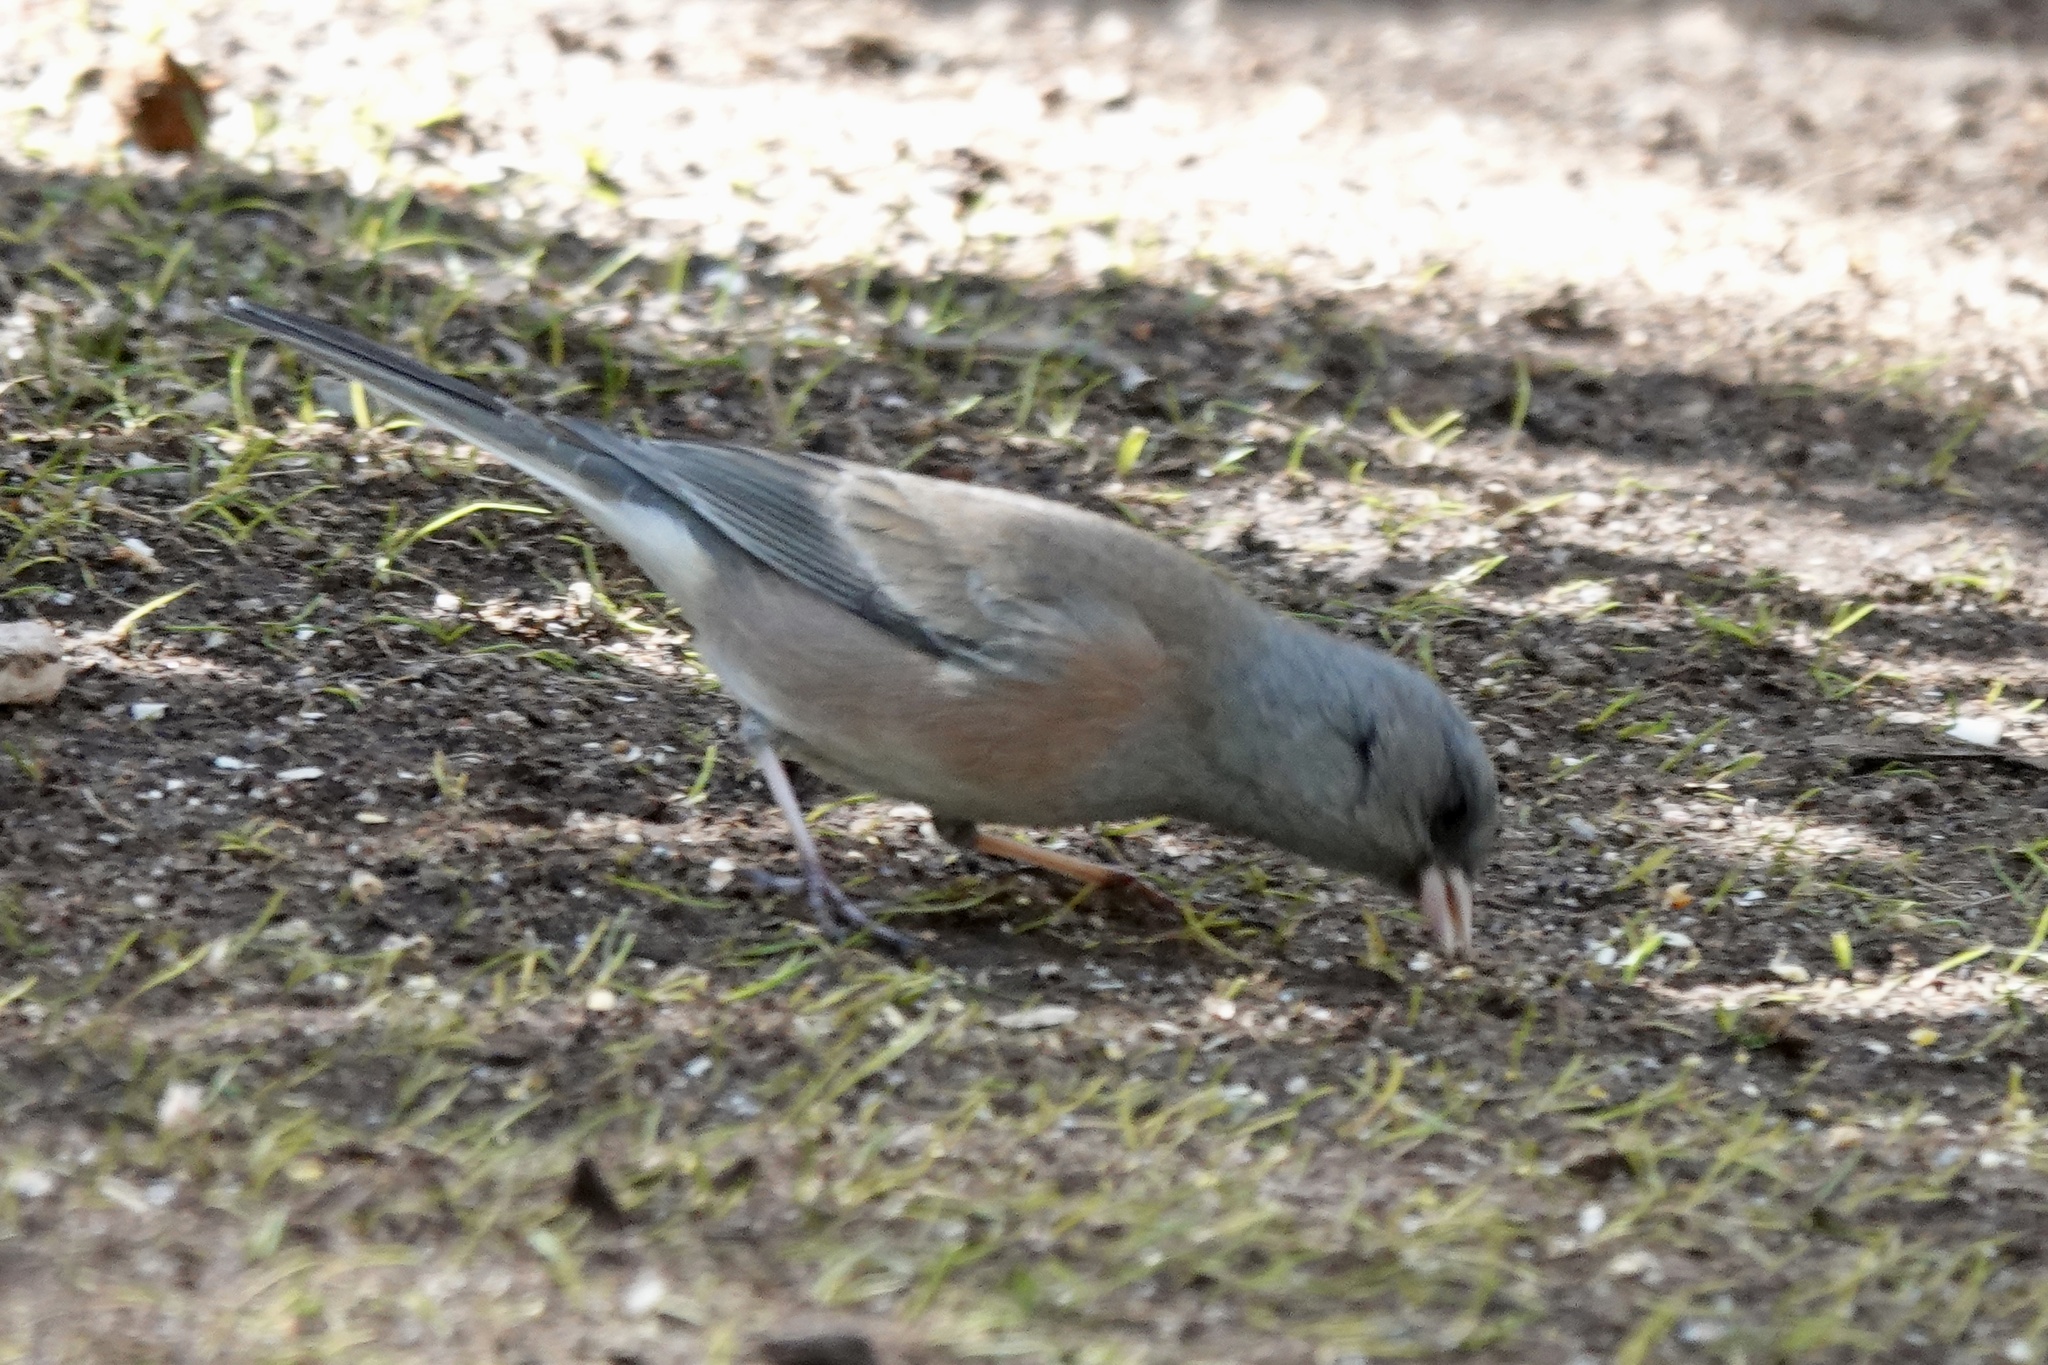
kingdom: Animalia
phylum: Chordata
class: Aves
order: Passeriformes
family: Passerellidae
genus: Junco
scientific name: Junco hyemalis
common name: Dark-eyed junco
